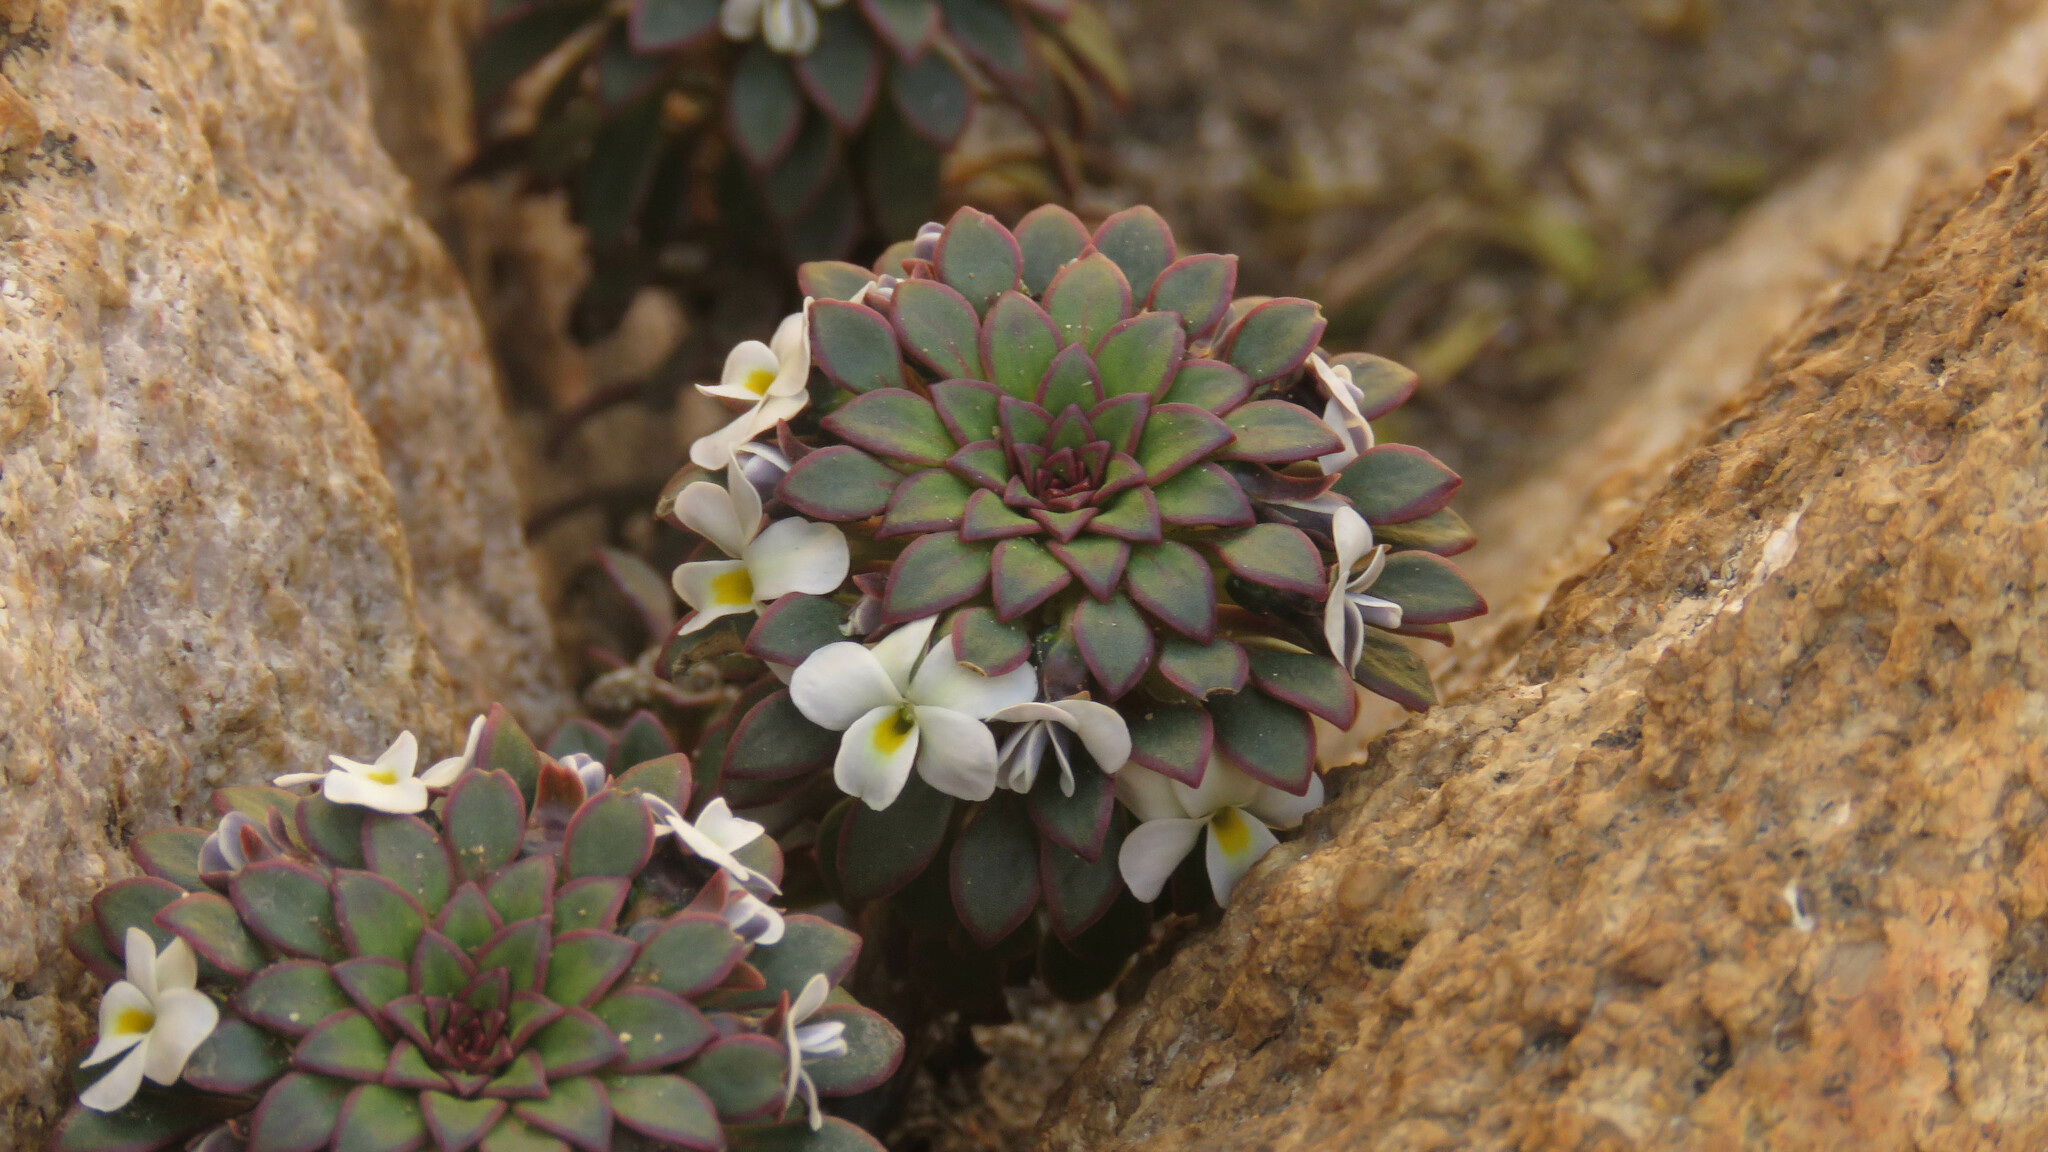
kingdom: Plantae
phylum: Tracheophyta
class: Magnoliopsida
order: Malpighiales
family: Violaceae
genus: Viola
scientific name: Viola sacculus
